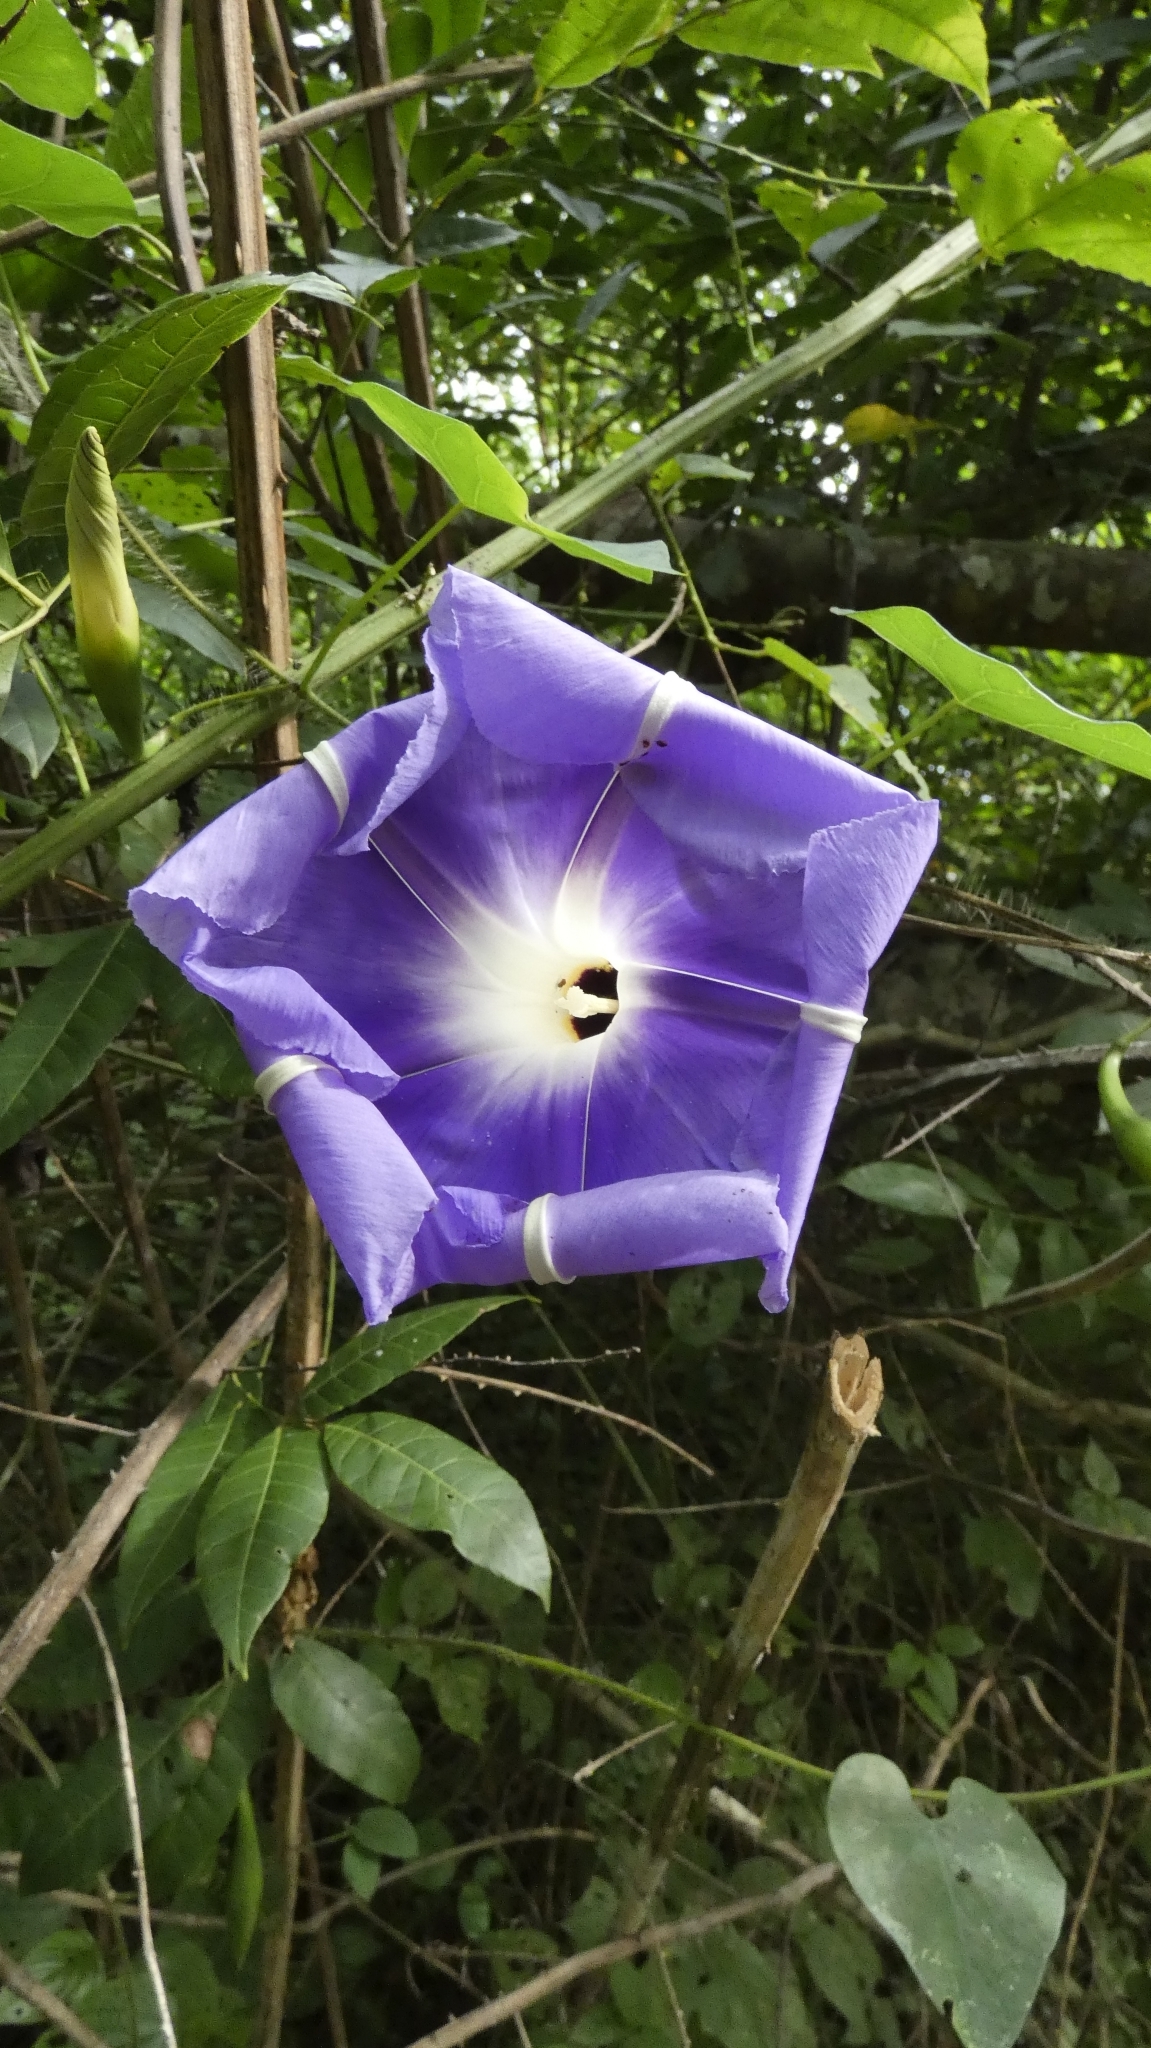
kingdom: Plantae
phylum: Tracheophyta
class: Magnoliopsida
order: Solanales
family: Convolvulaceae
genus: Ipomoea
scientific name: Ipomoea clavata
